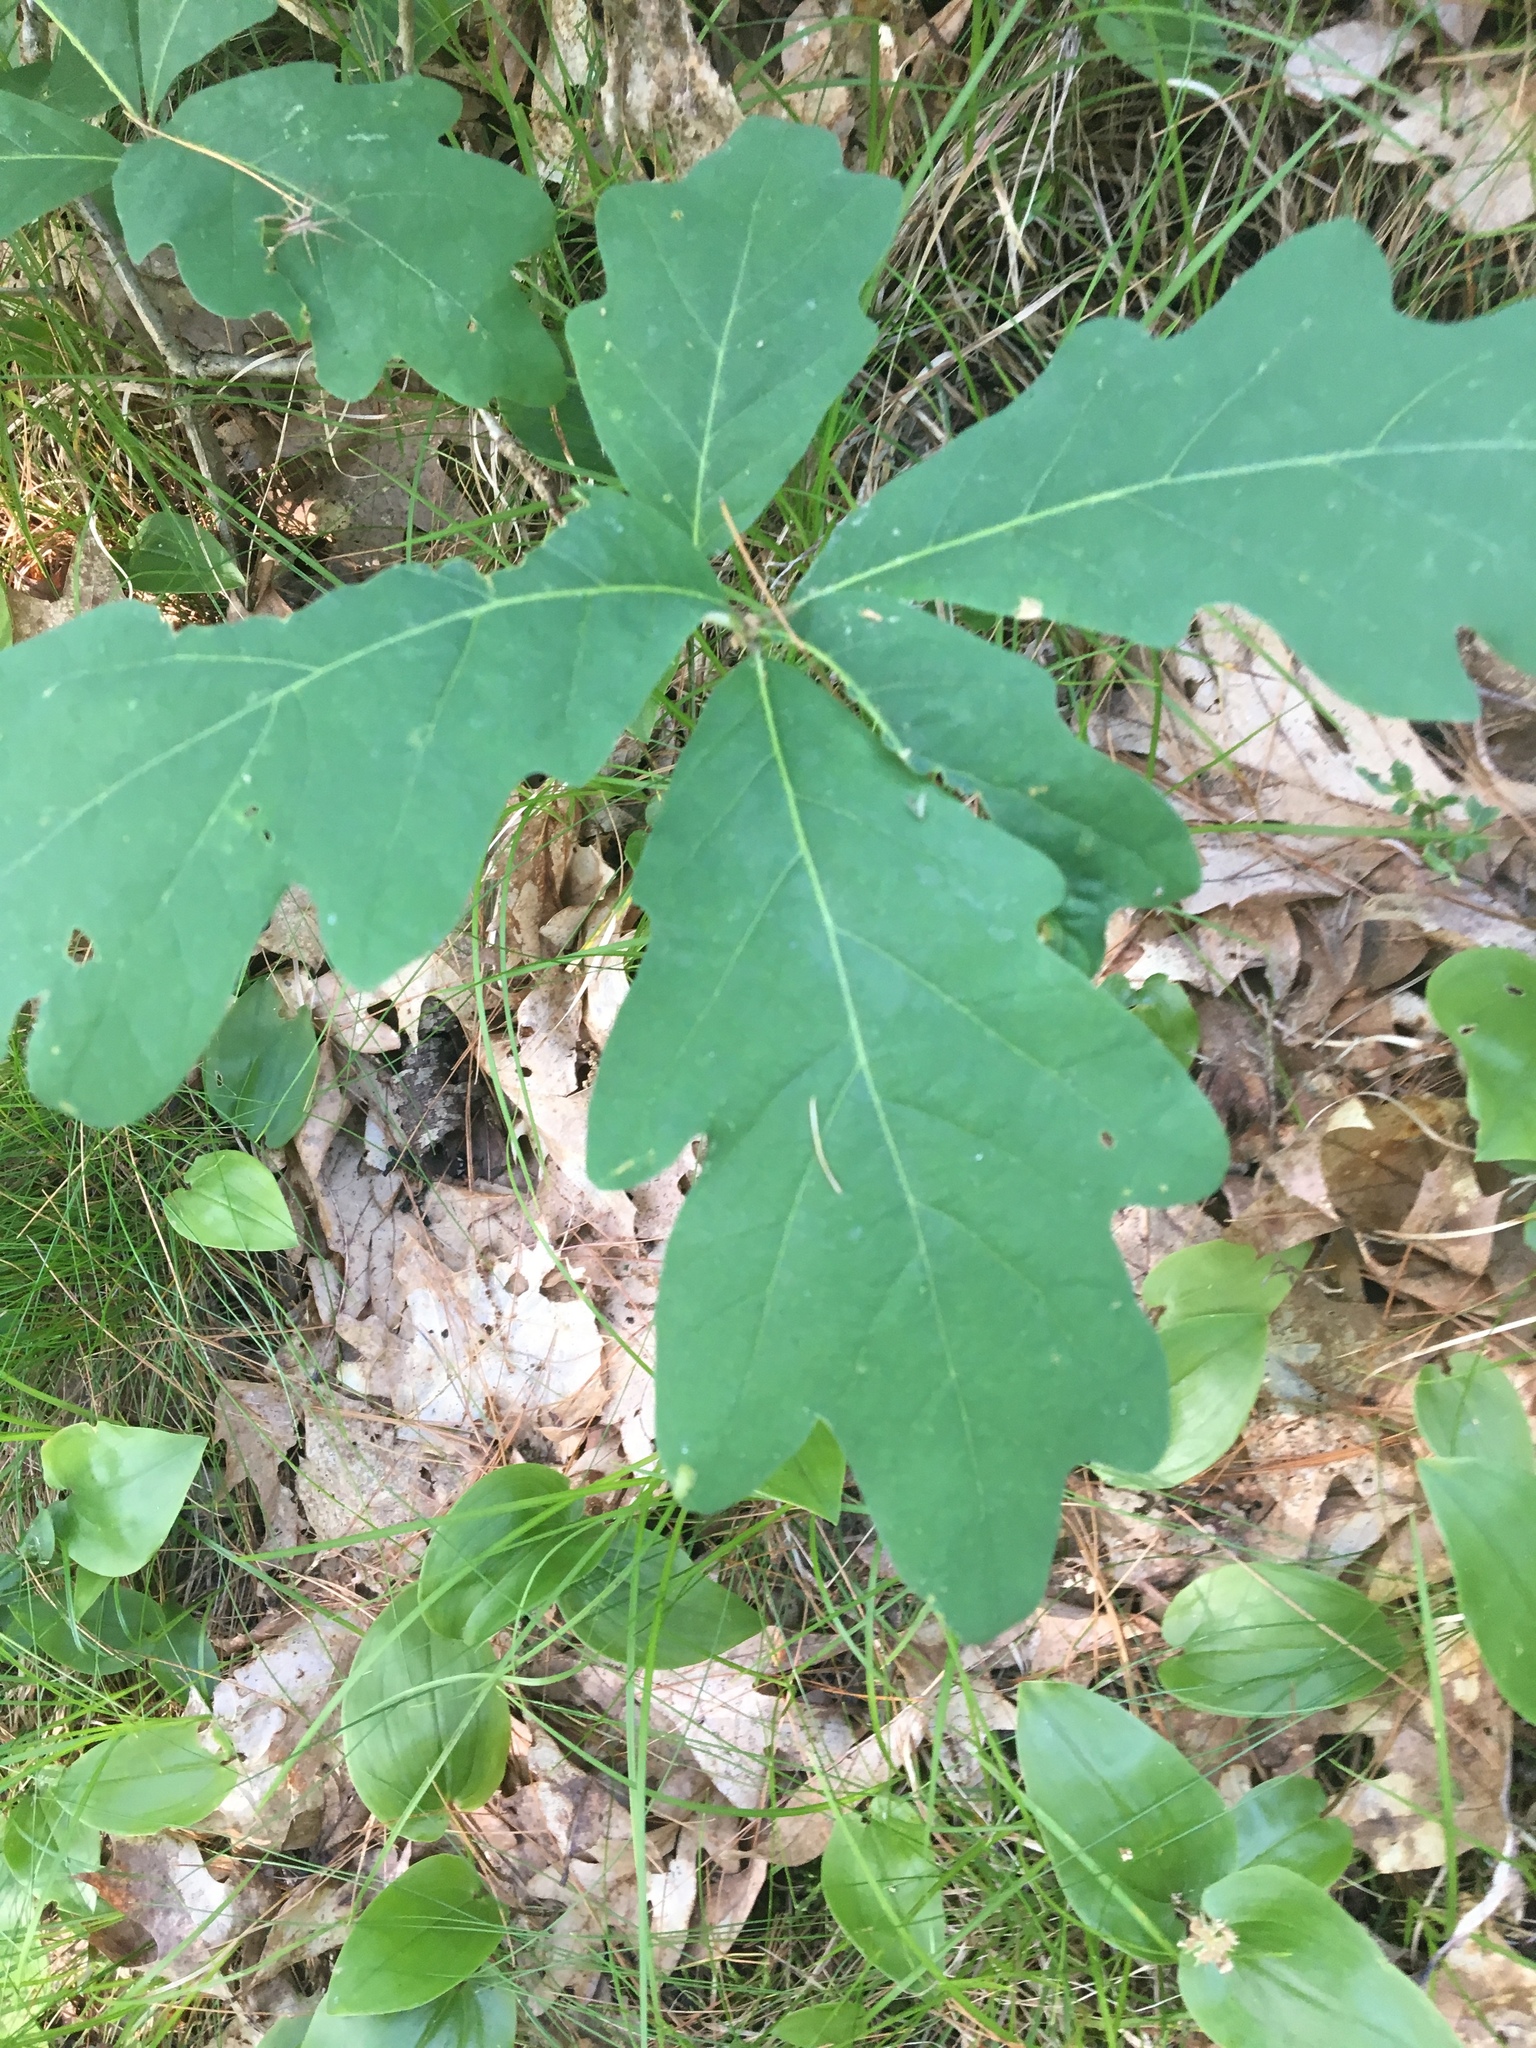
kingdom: Plantae
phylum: Tracheophyta
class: Magnoliopsida
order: Fagales
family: Fagaceae
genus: Quercus
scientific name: Quercus alba
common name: White oak
